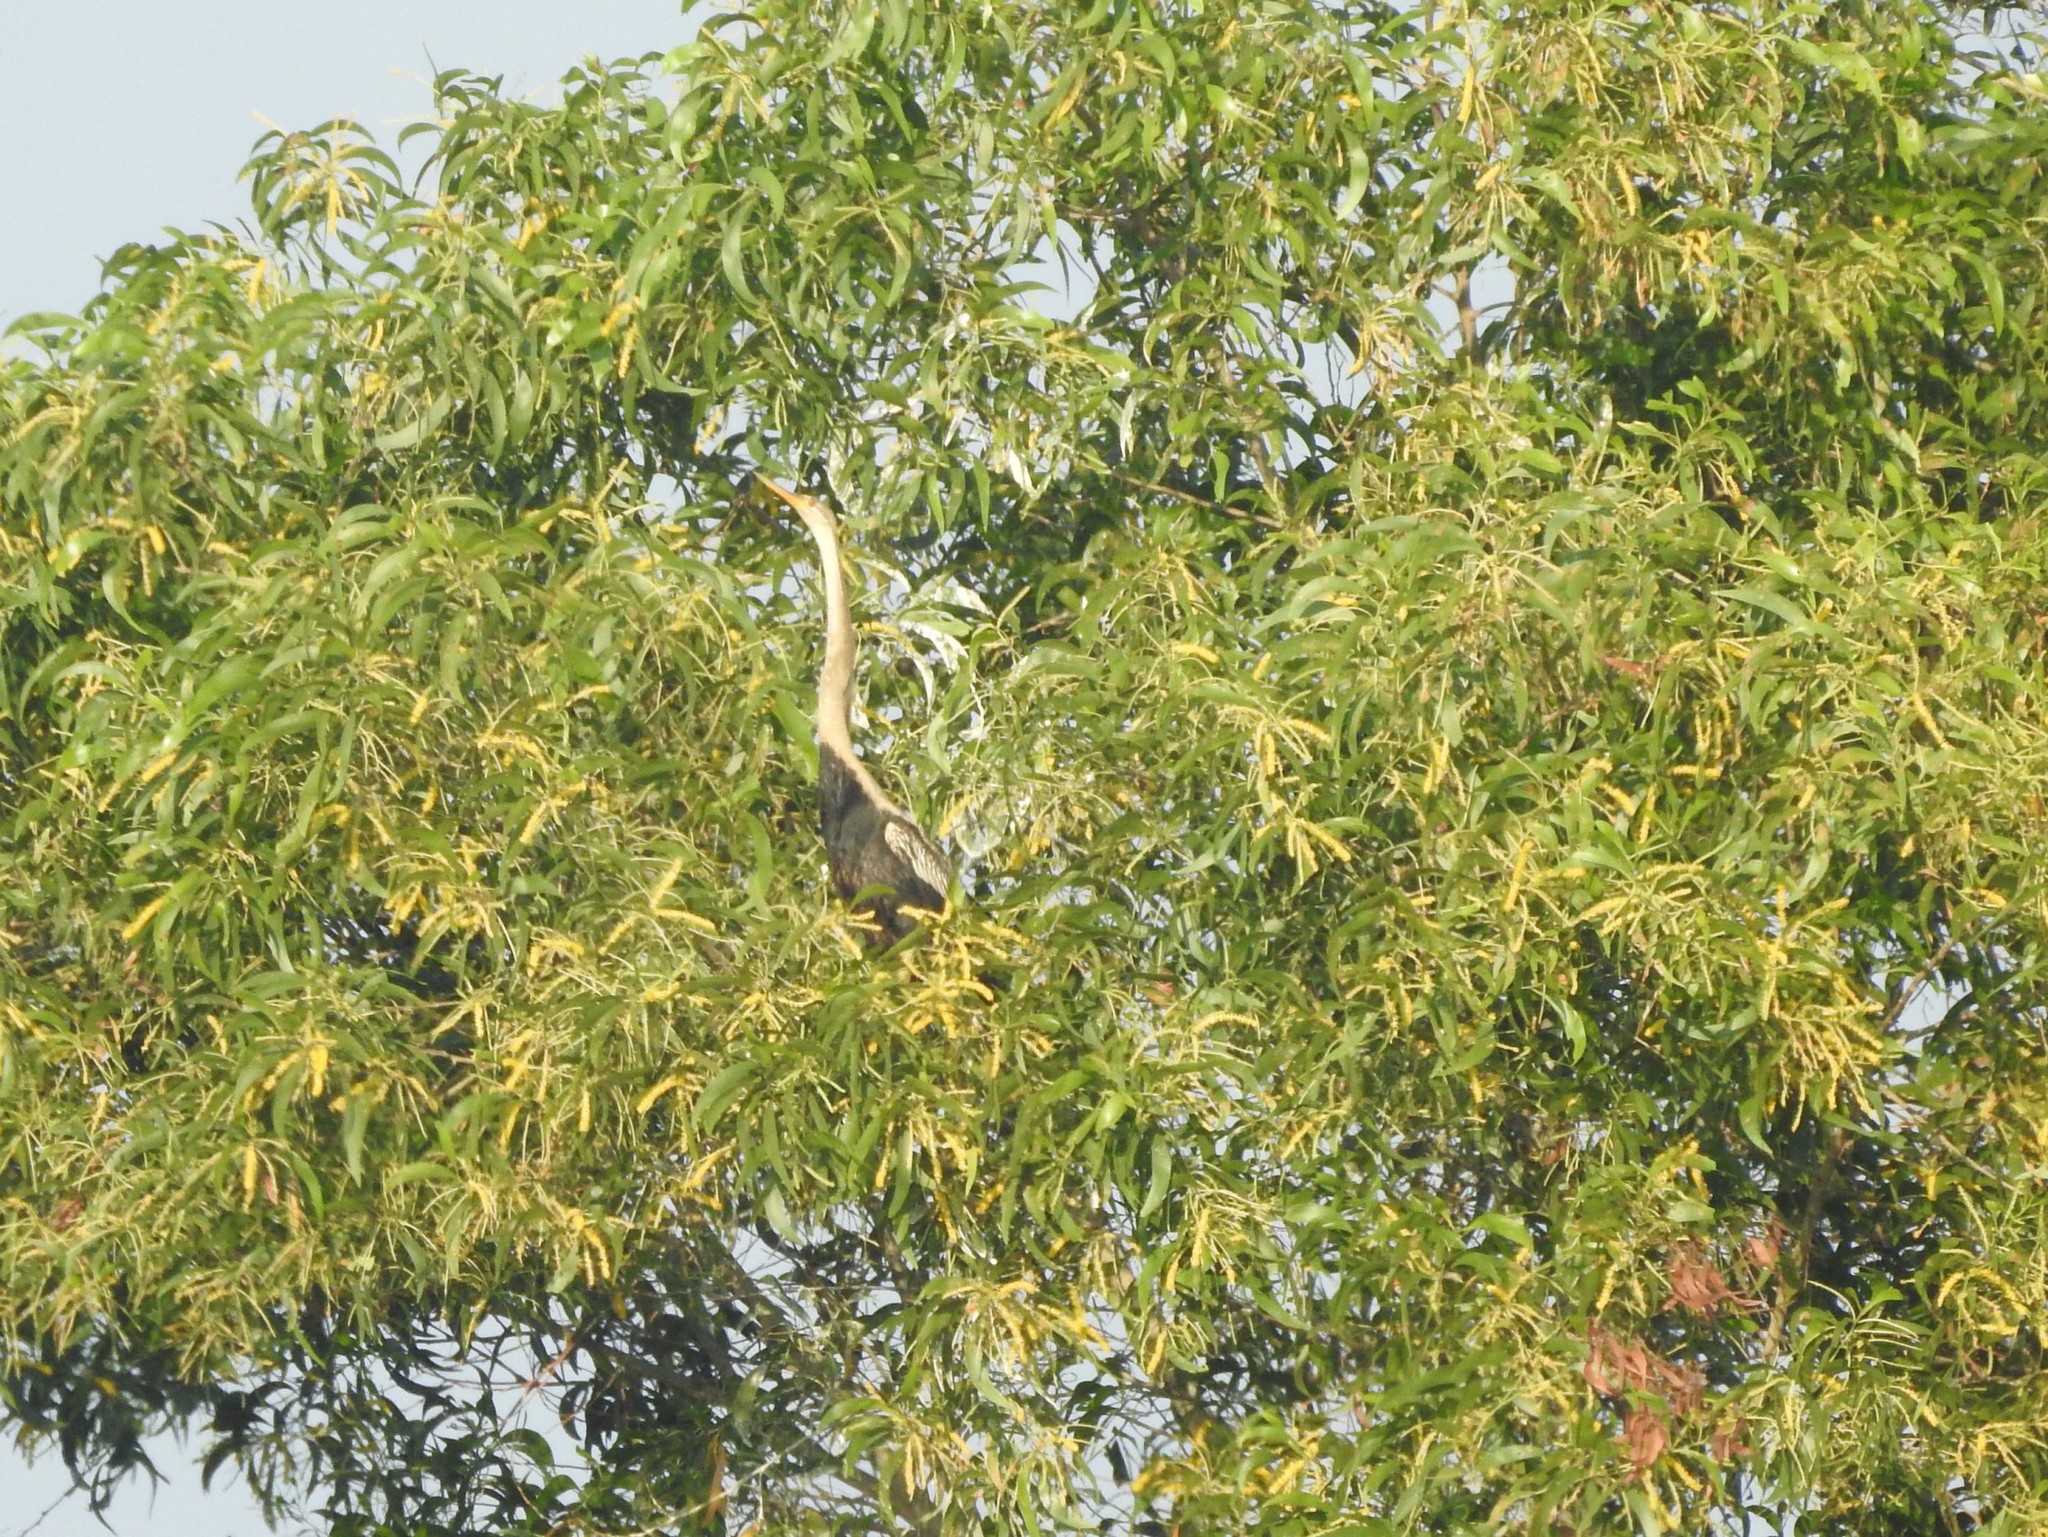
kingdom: Animalia
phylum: Chordata
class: Aves
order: Suliformes
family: Anhingidae
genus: Anhinga
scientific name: Anhinga melanogaster
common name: Oriental darter
